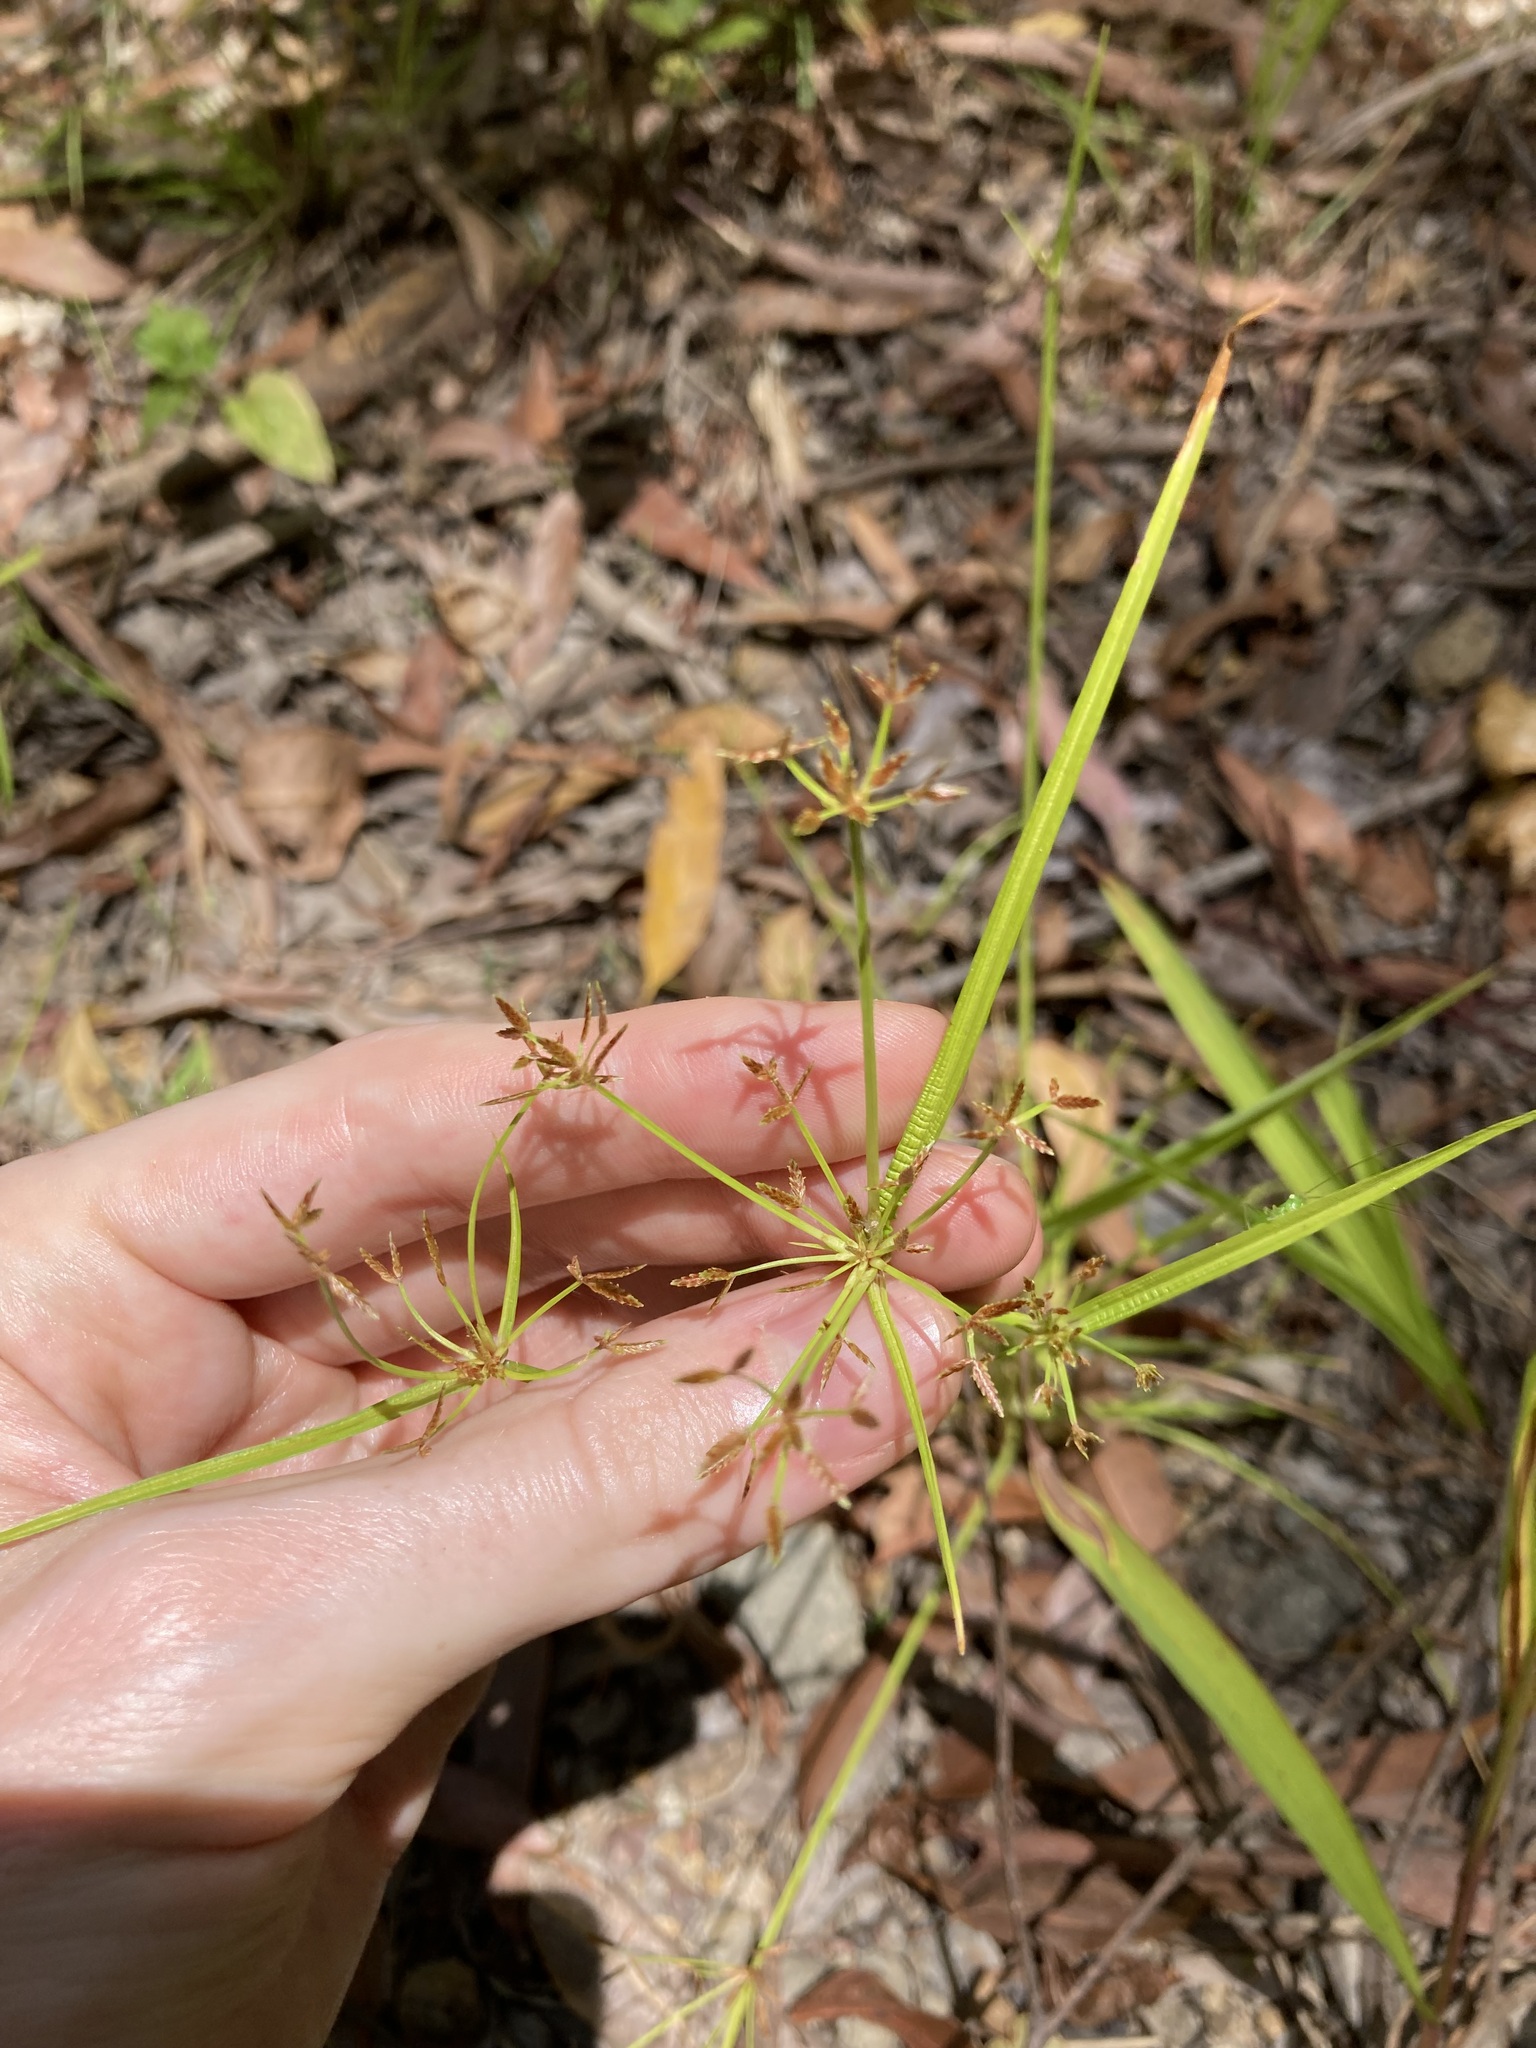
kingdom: Plantae
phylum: Tracheophyta
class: Liliopsida
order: Poales
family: Cyperaceae
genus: Cyperus
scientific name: Cyperus haspan
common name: Haspan flatsedge
